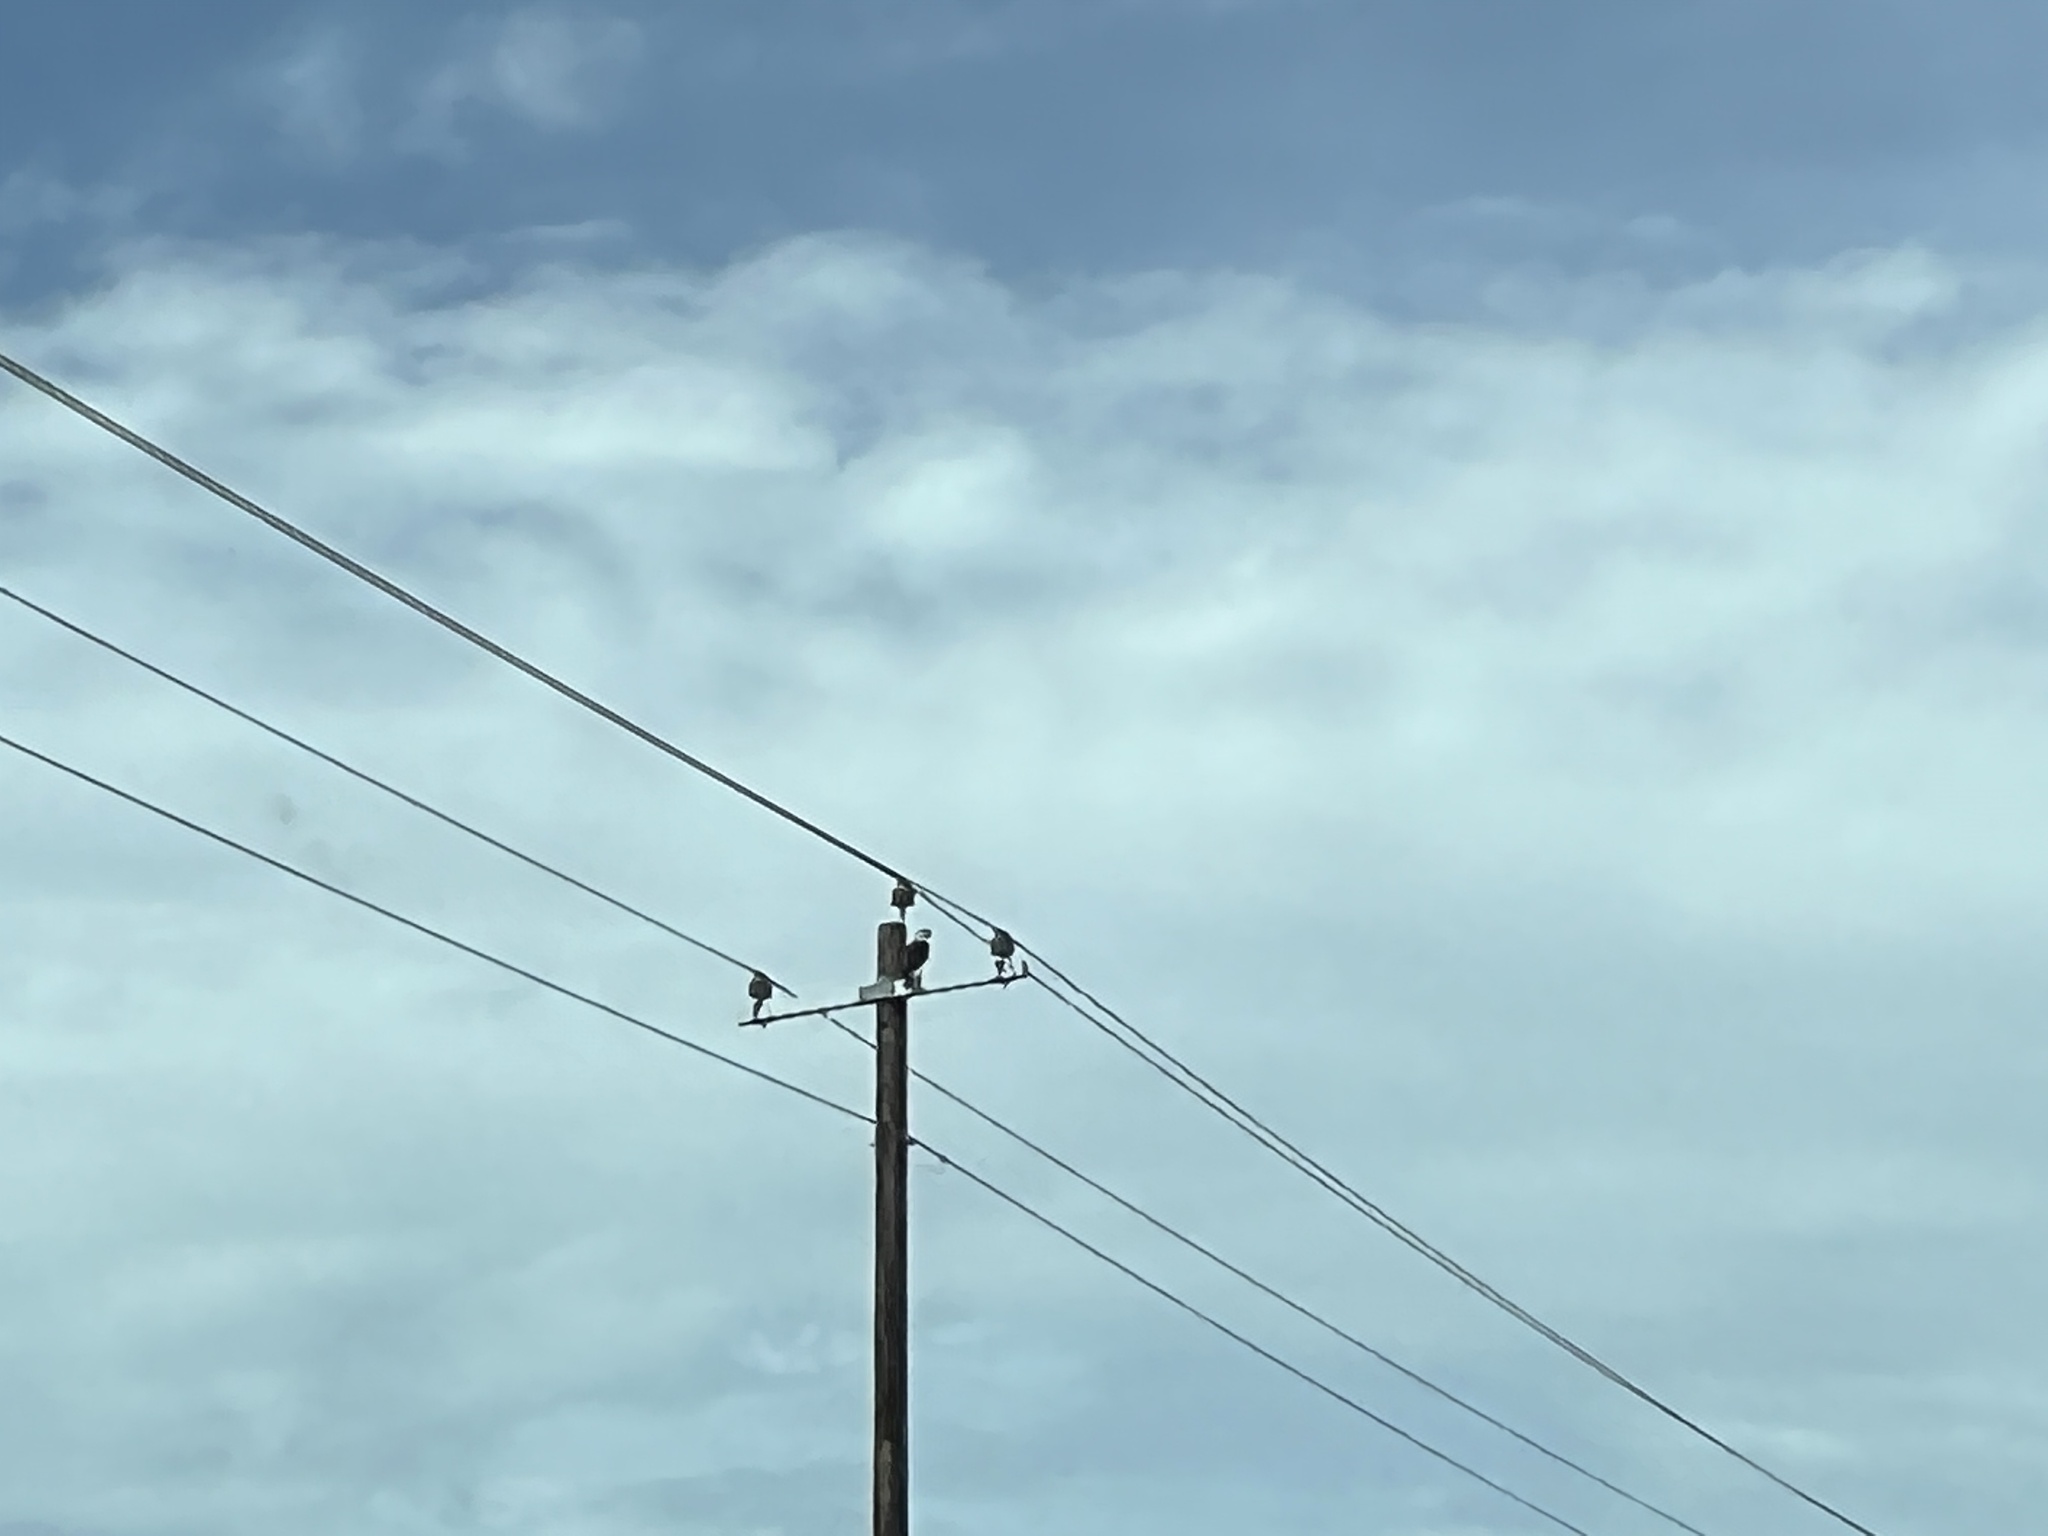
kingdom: Animalia
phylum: Chordata
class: Aves
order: Falconiformes
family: Falconidae
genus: Caracara
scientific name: Caracara plancus
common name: Southern caracara
